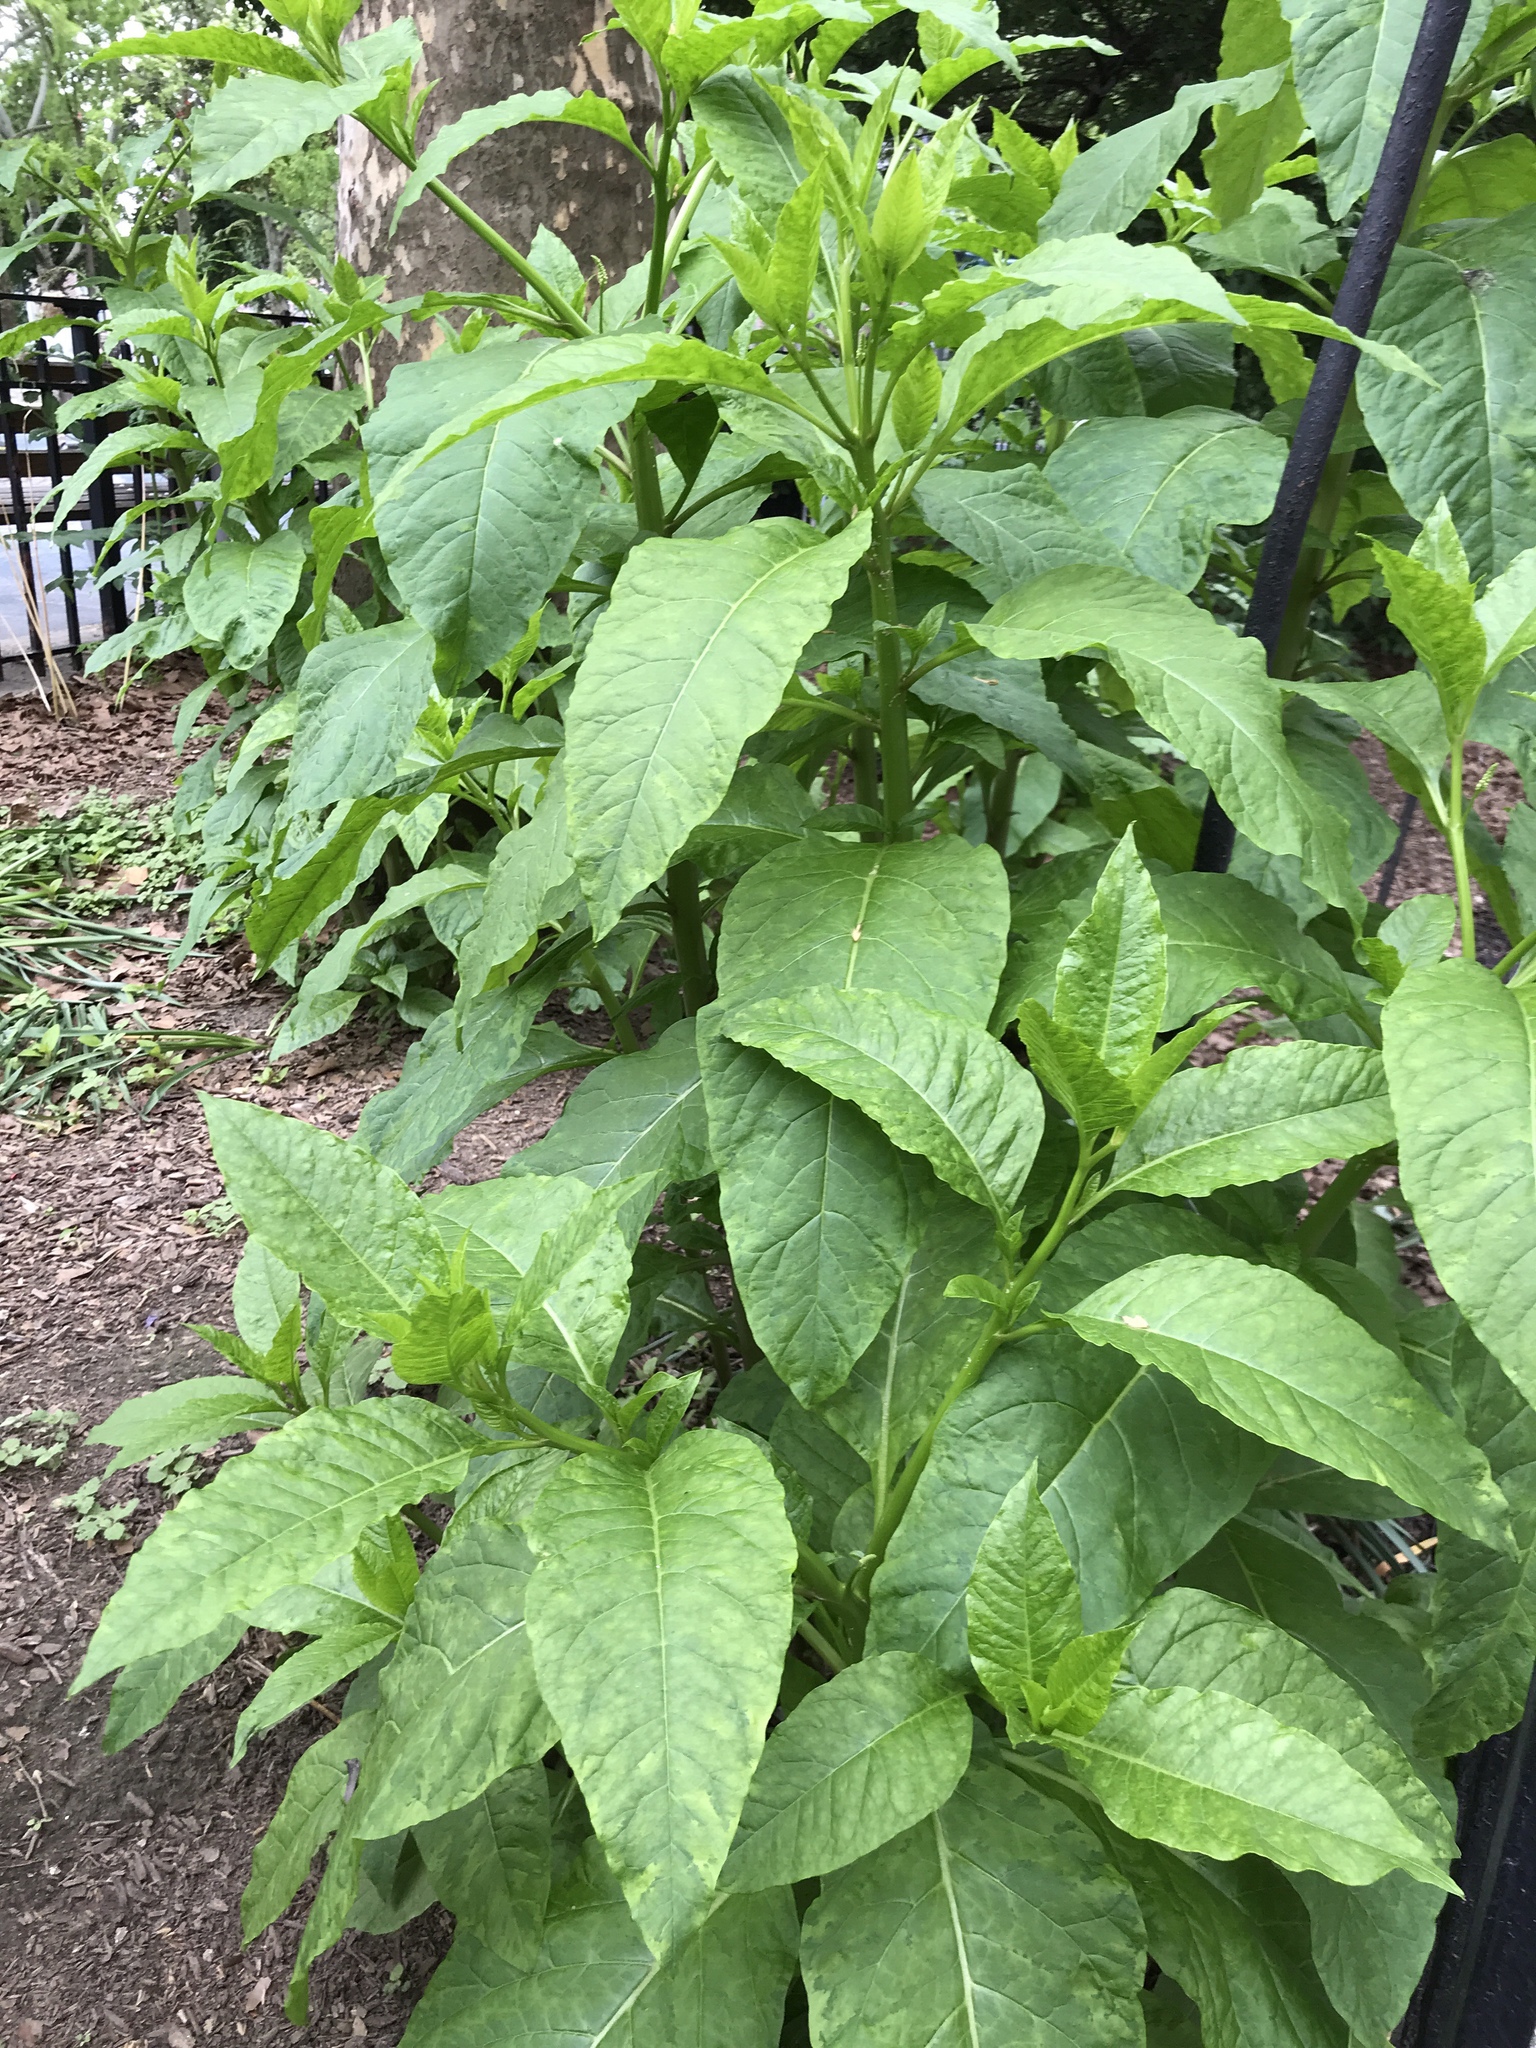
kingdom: Plantae
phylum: Tracheophyta
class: Magnoliopsida
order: Caryophyllales
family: Phytolaccaceae
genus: Phytolacca
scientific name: Phytolacca americana
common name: American pokeweed
